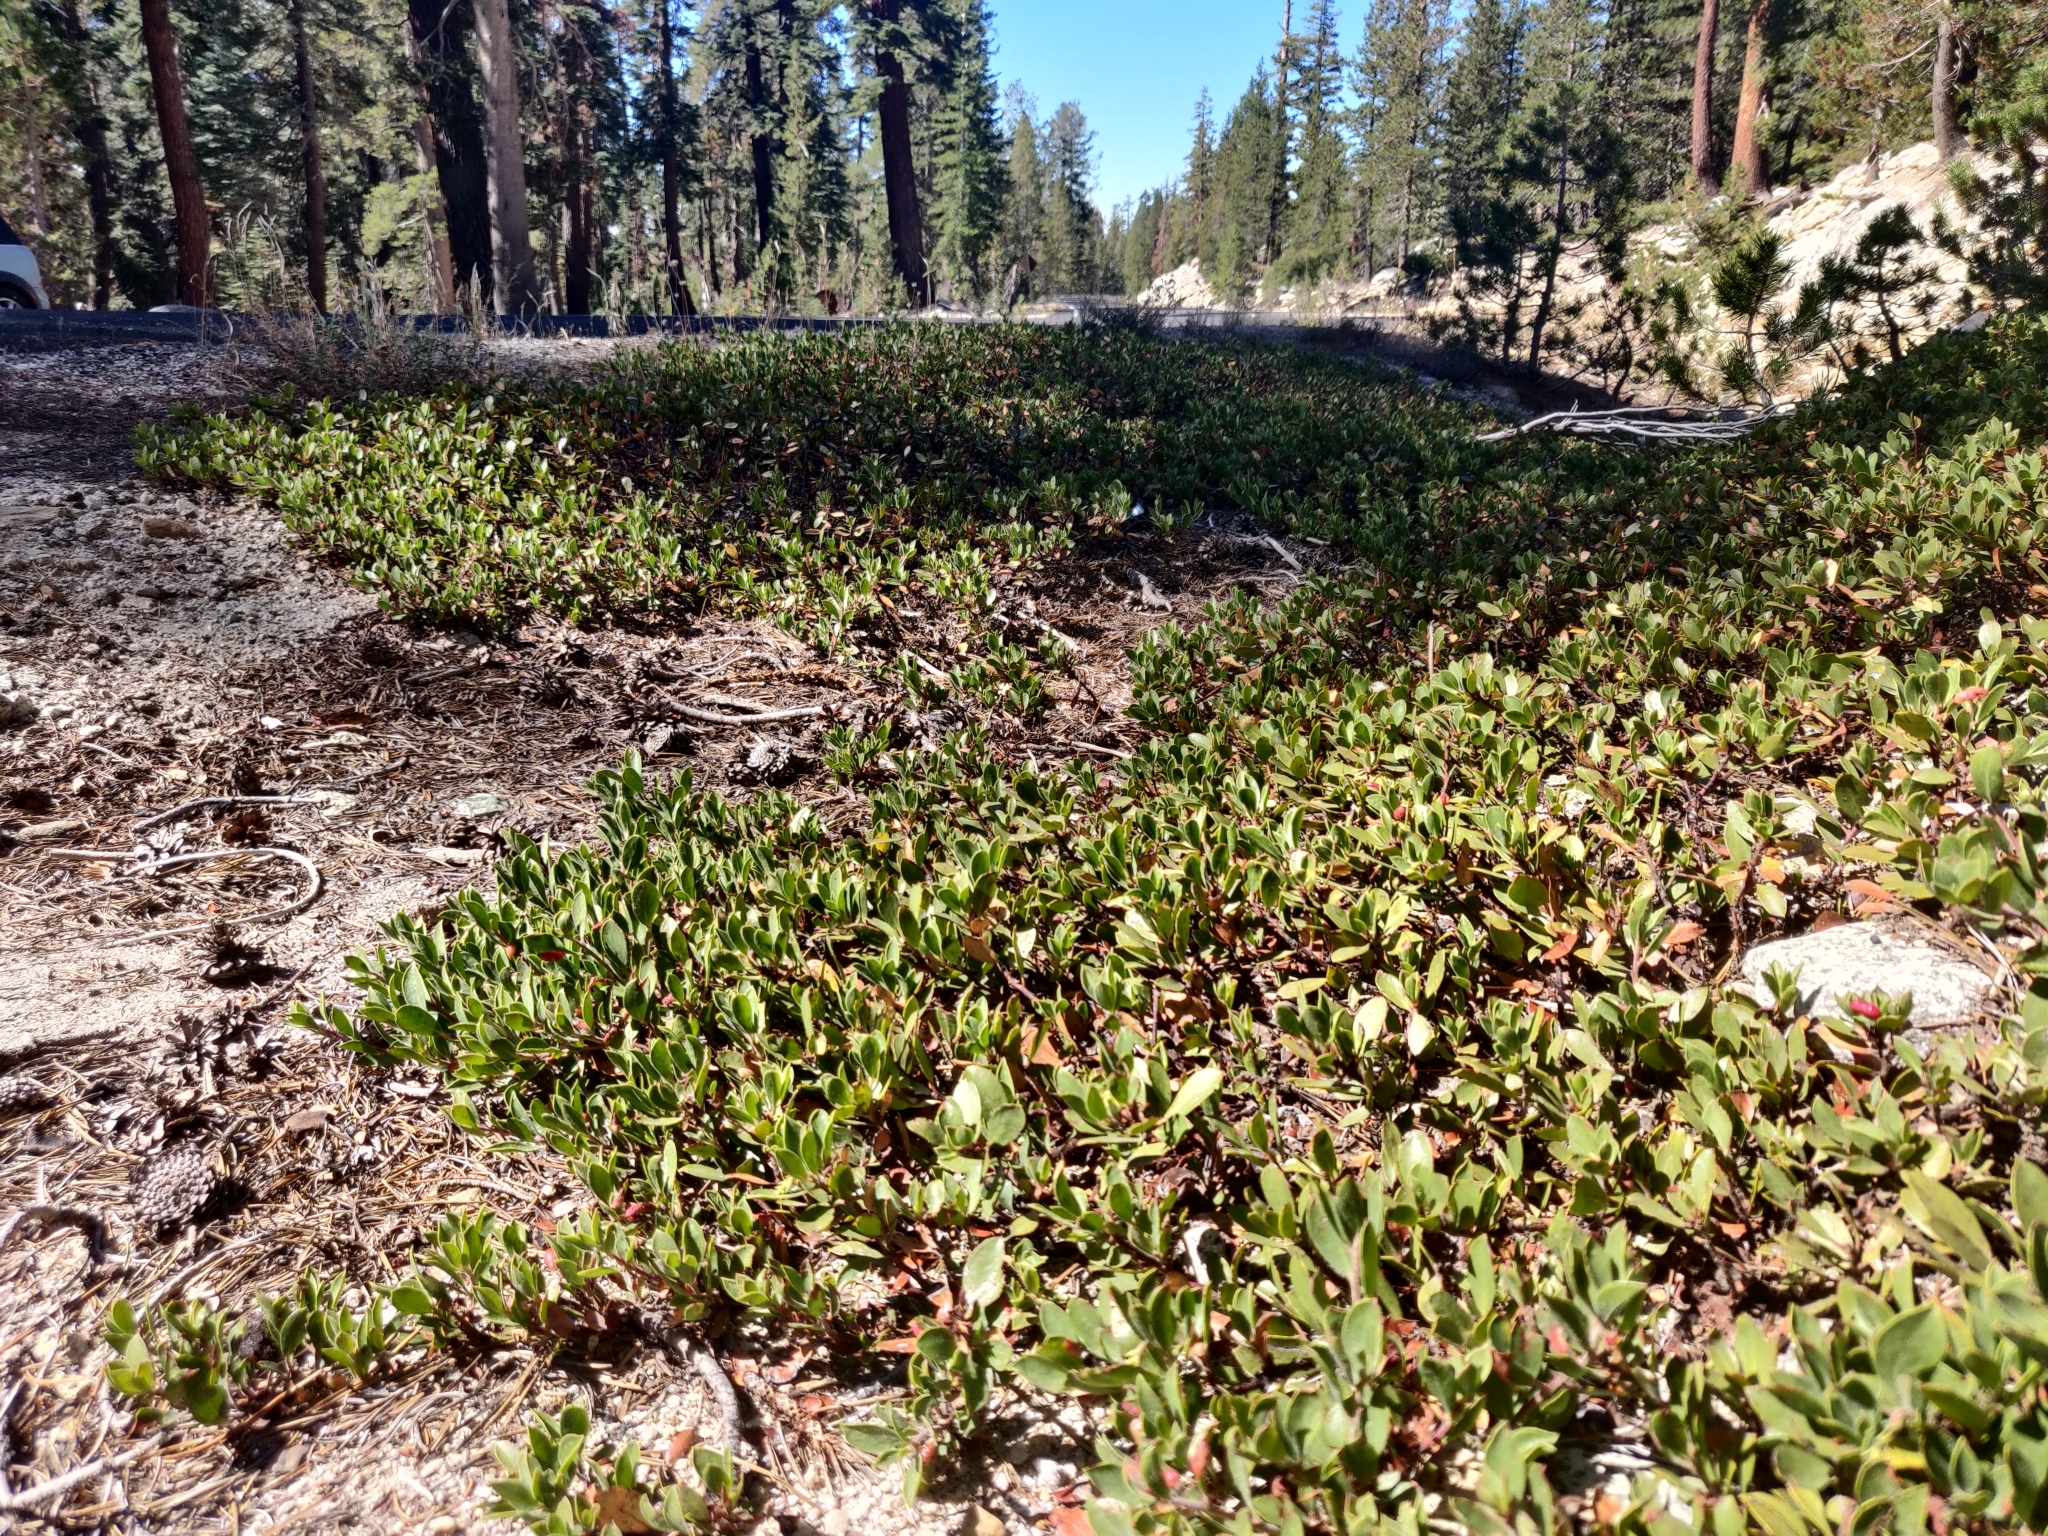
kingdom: Plantae
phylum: Tracheophyta
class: Magnoliopsida
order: Ericales
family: Ericaceae
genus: Arctostaphylos
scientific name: Arctostaphylos nevadensis
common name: Pinemat manzanita
